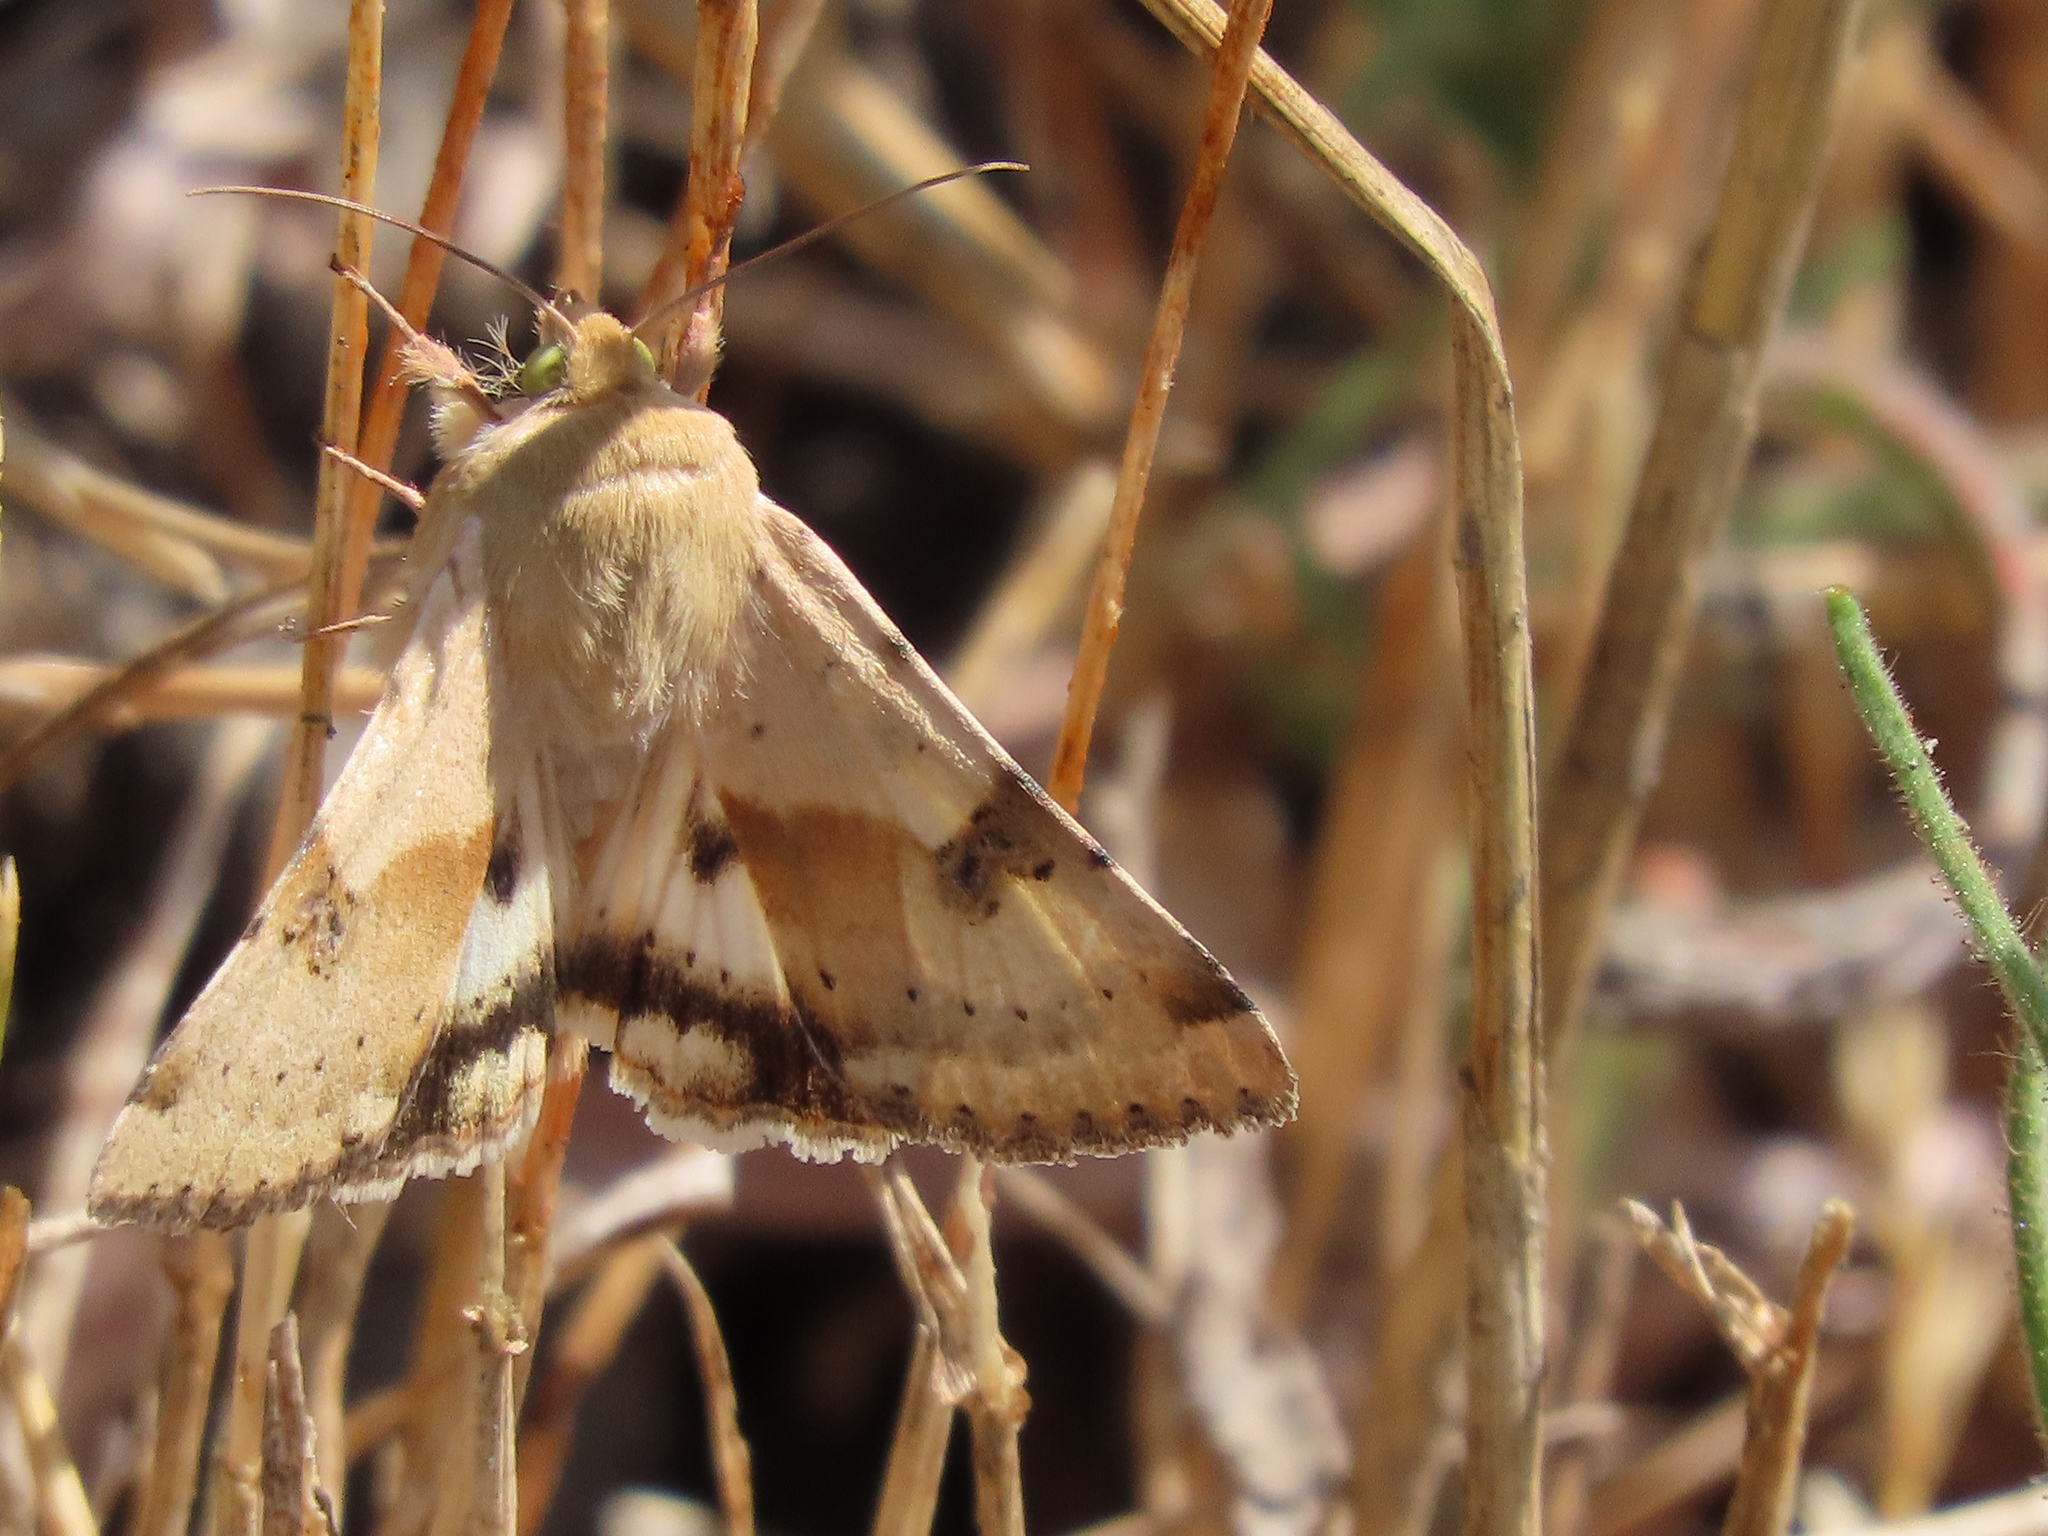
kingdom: Animalia
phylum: Arthropoda
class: Insecta
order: Lepidoptera
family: Noctuidae
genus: Heliothis
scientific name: Heliothis phloxiphaga
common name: Darker spotted straw moth
